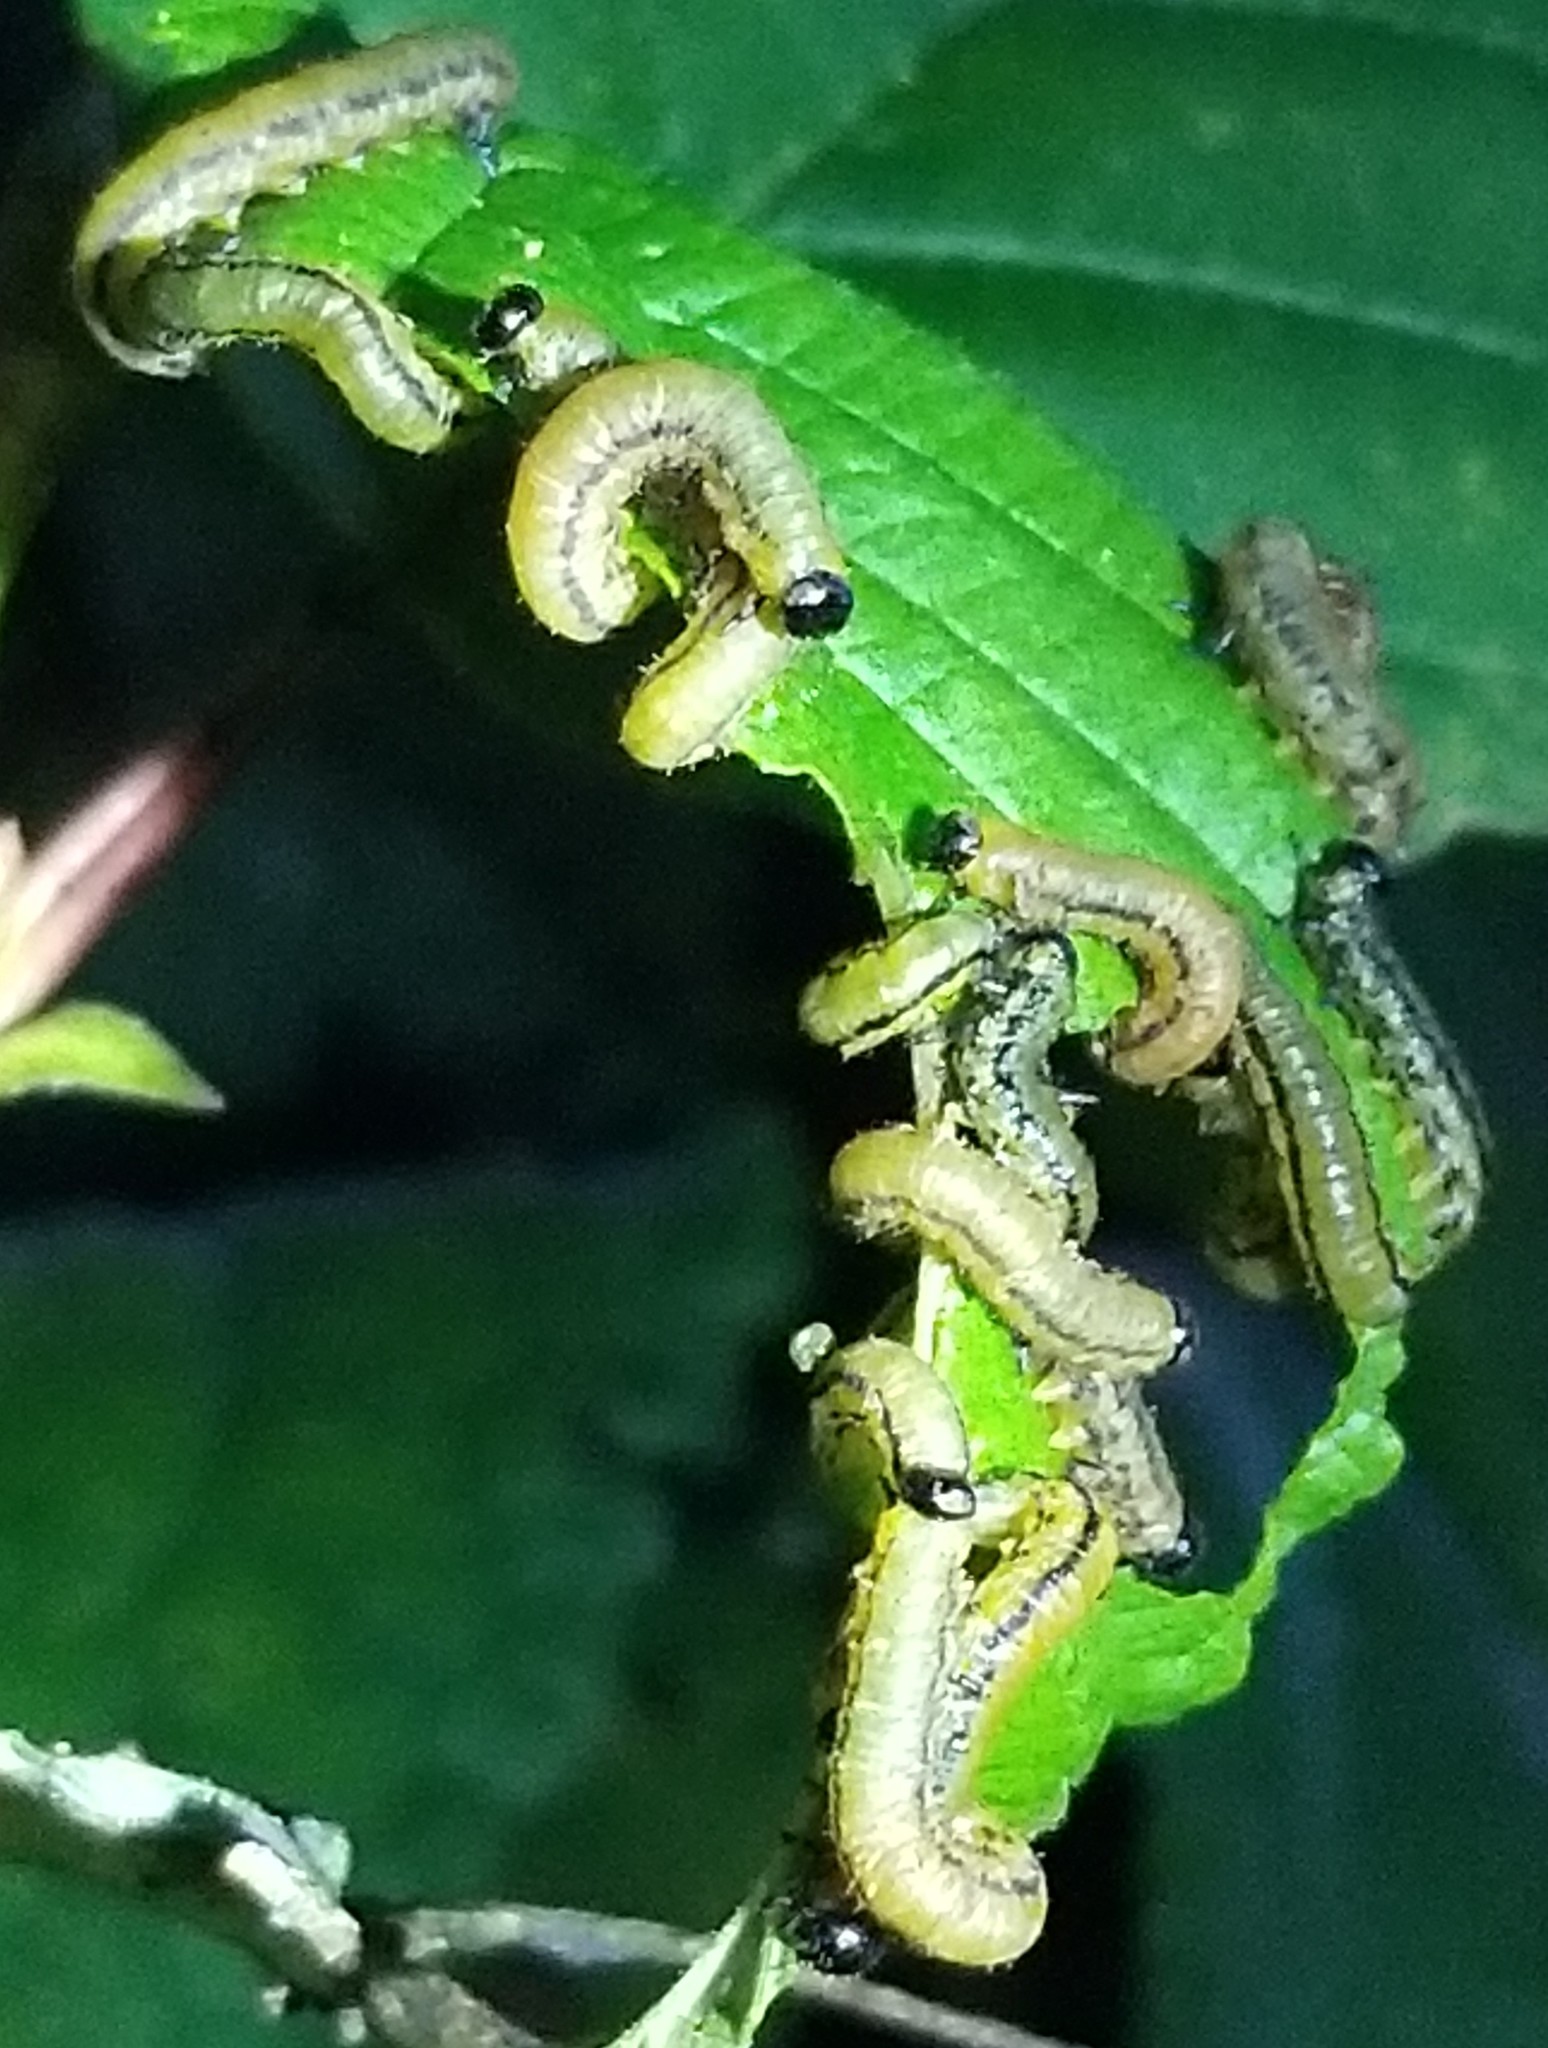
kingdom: Animalia
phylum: Arthropoda
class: Insecta
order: Hymenoptera
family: Tenthredinidae
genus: Hemichroa
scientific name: Hemichroa crocea
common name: Striped alder sawfly
